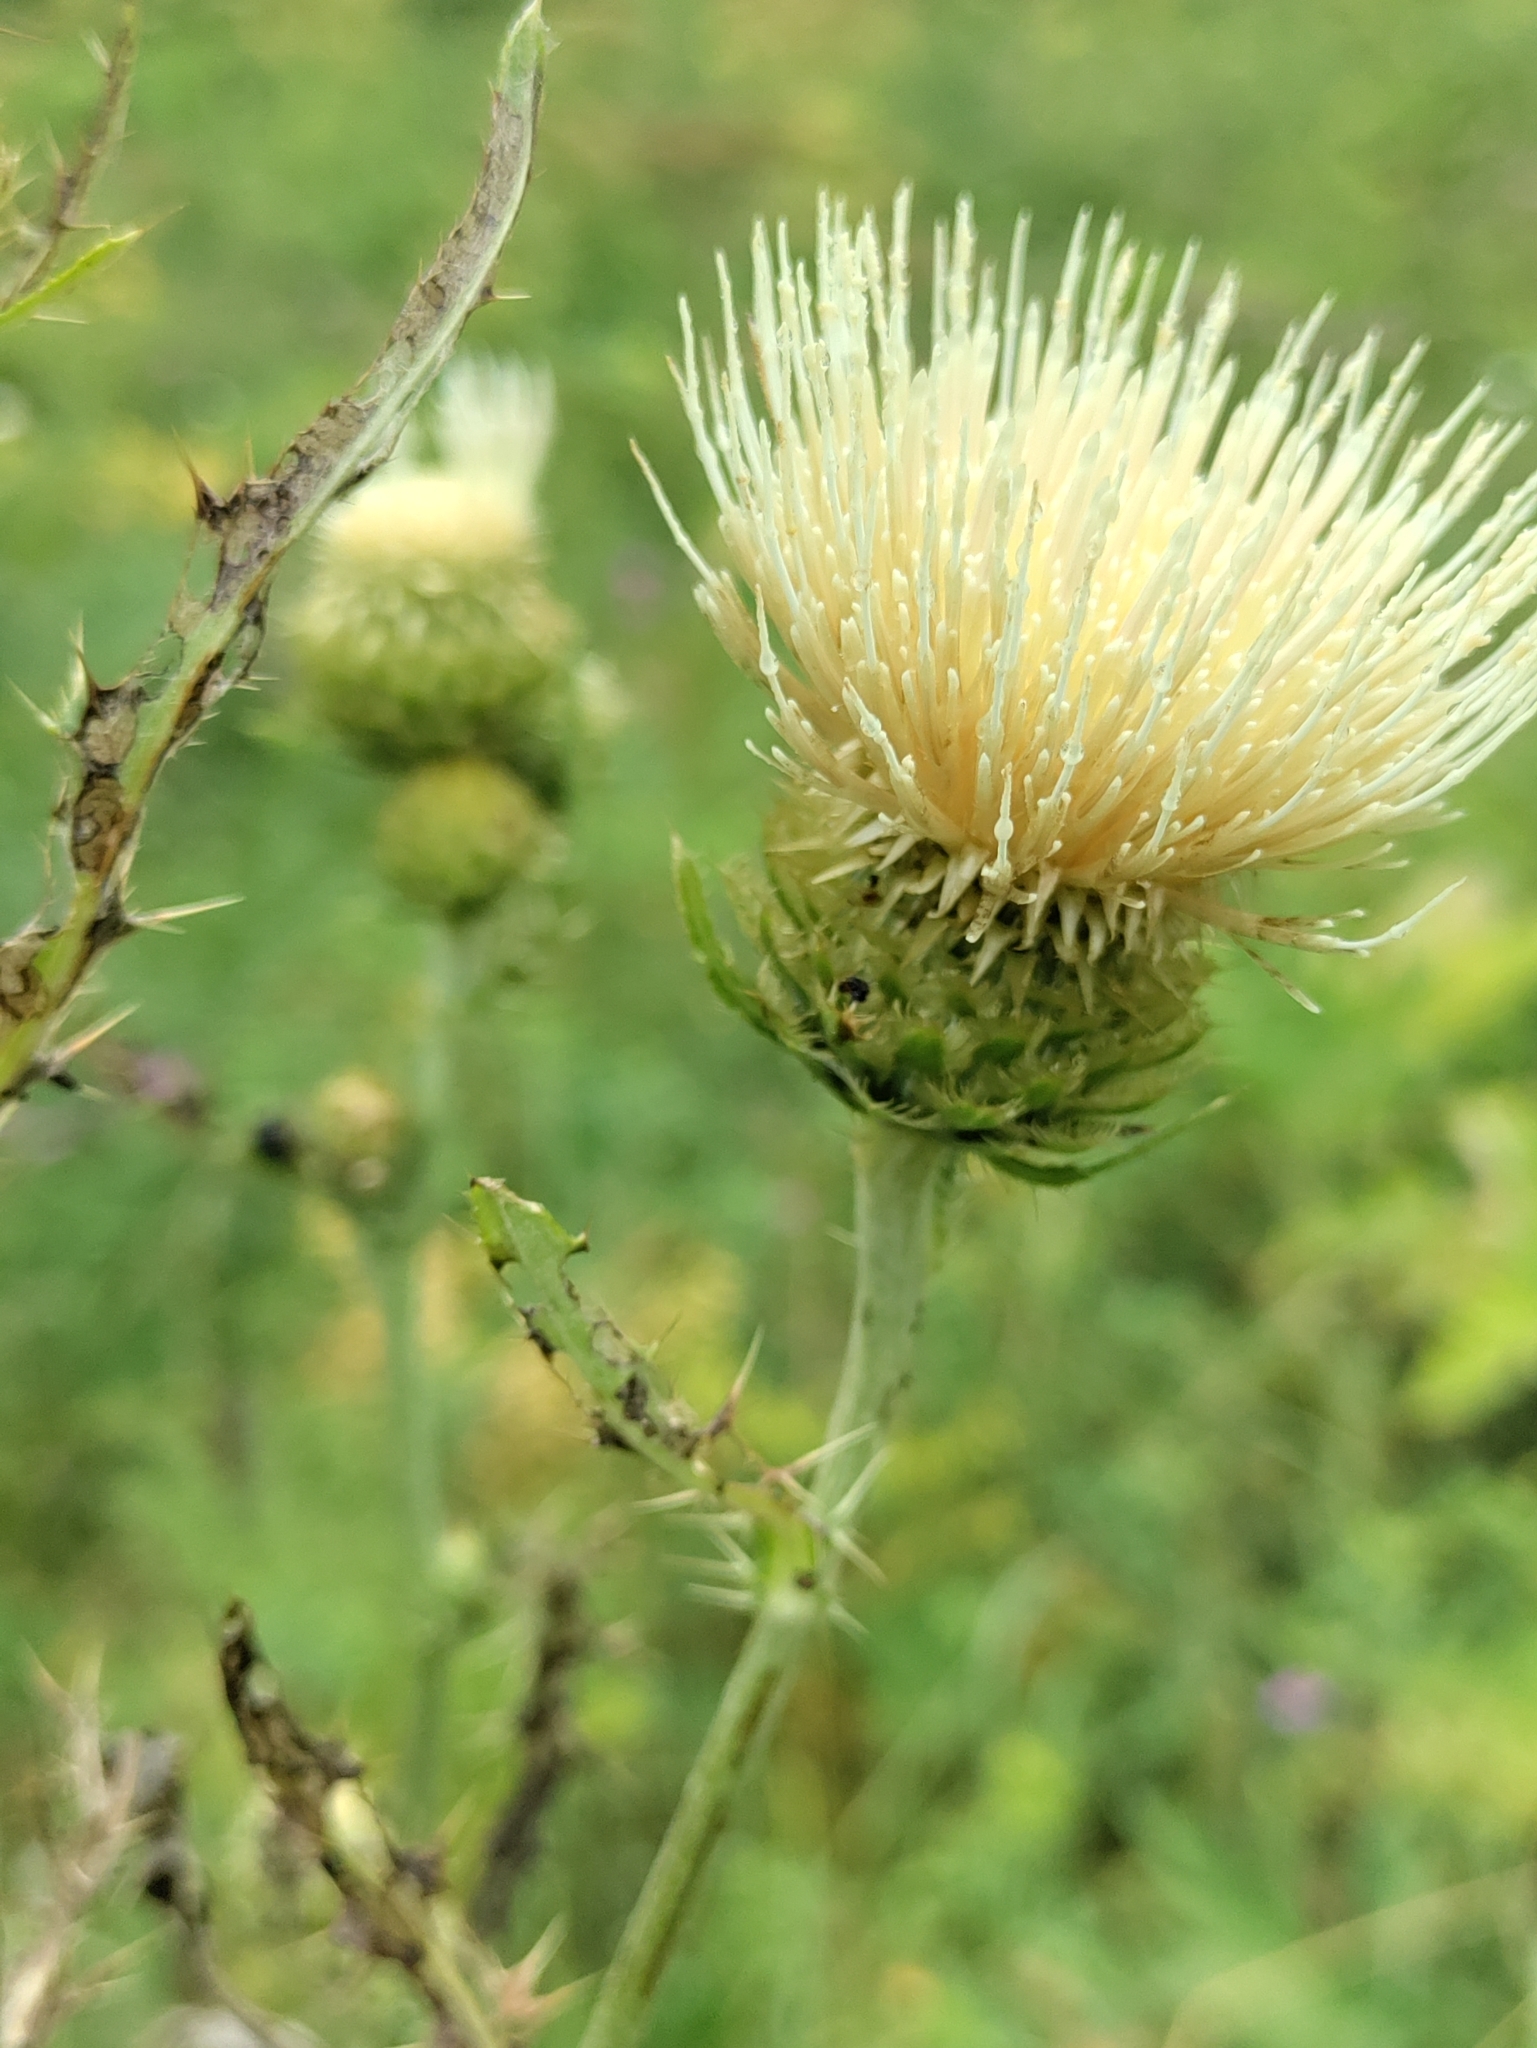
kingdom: Plantae
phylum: Tracheophyta
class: Magnoliopsida
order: Asterales
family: Asteraceae
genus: Cirsium
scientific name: Cirsium remotifolium
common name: Remote-leaf thistle
